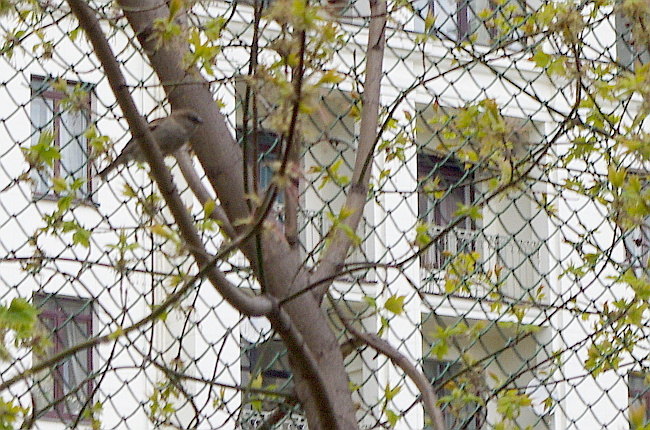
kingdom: Animalia
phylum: Chordata
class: Aves
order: Passeriformes
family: Passeridae
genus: Passer
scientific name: Passer domesticus
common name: House sparrow
